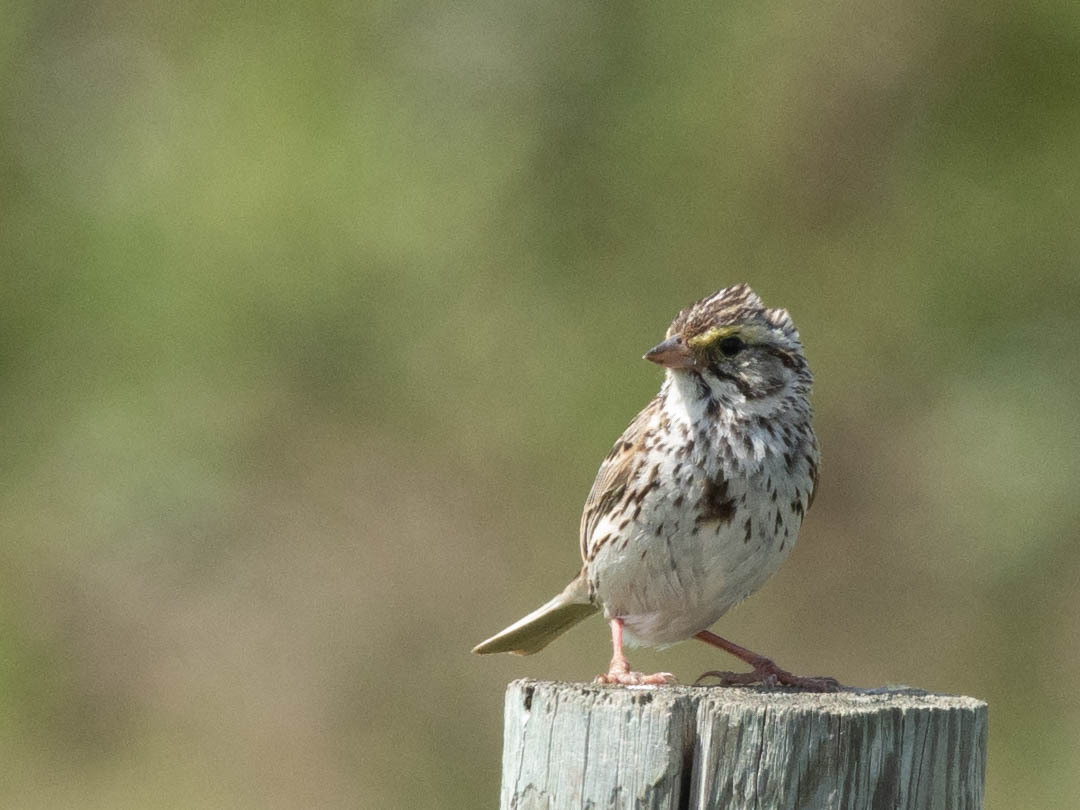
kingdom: Animalia
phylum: Chordata
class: Aves
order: Passeriformes
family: Passerellidae
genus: Passerculus
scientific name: Passerculus sandwichensis
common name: Savannah sparrow
